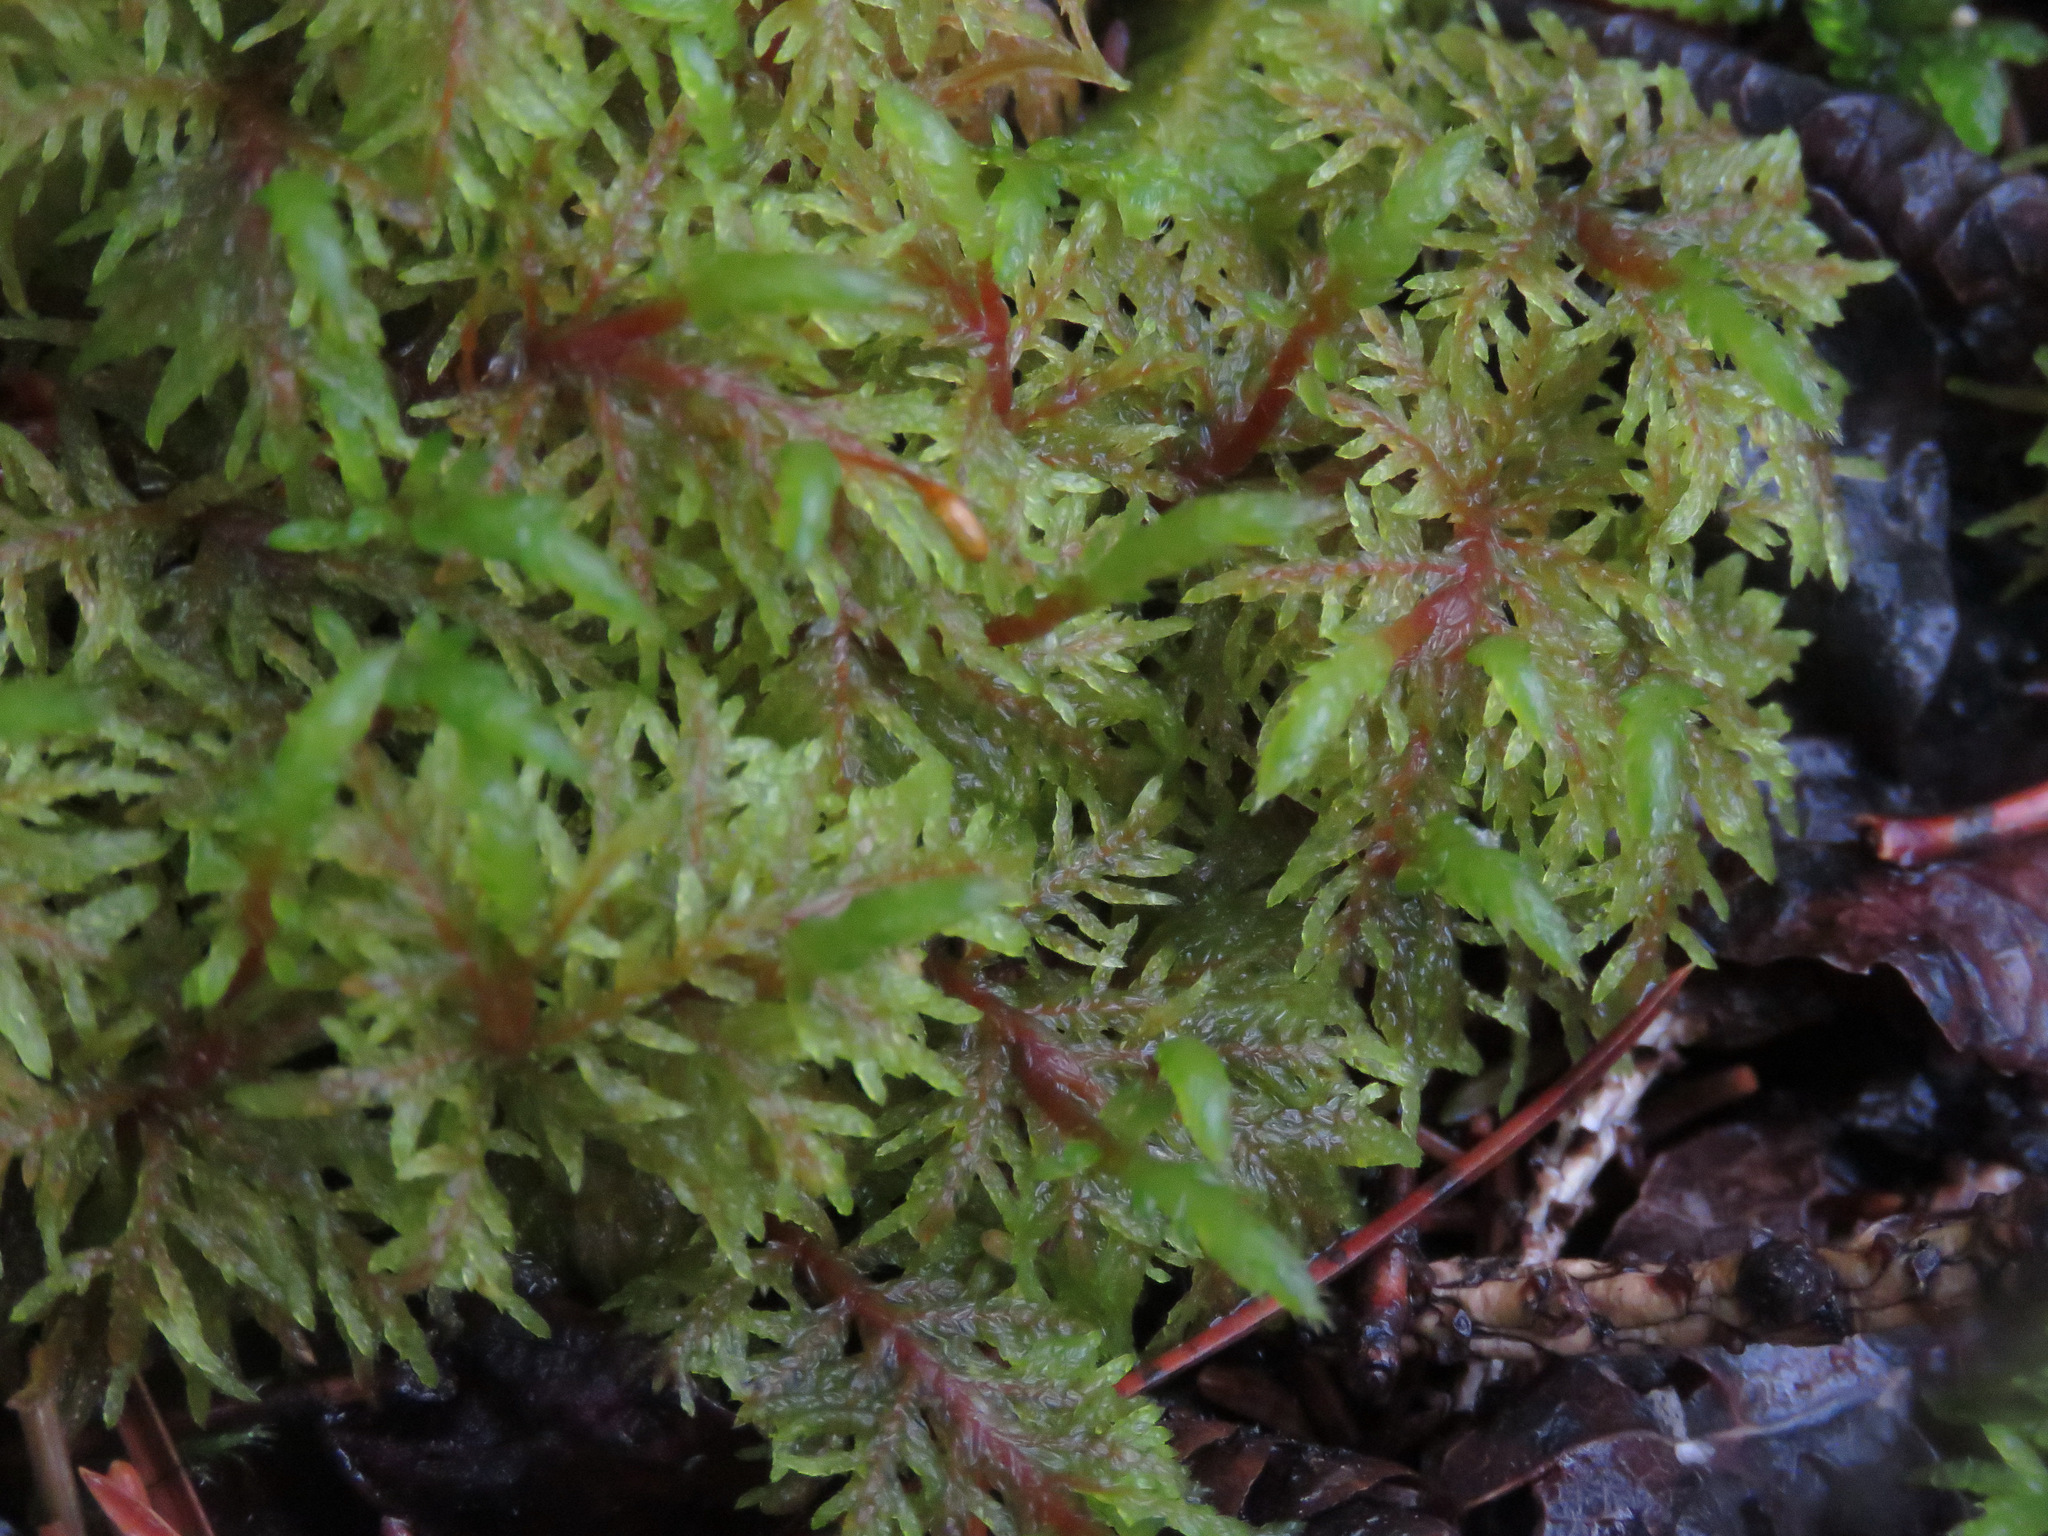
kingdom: Plantae
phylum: Bryophyta
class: Bryopsida
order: Hypnales
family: Hylocomiaceae
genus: Hylocomium
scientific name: Hylocomium splendens
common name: Stairstep moss
